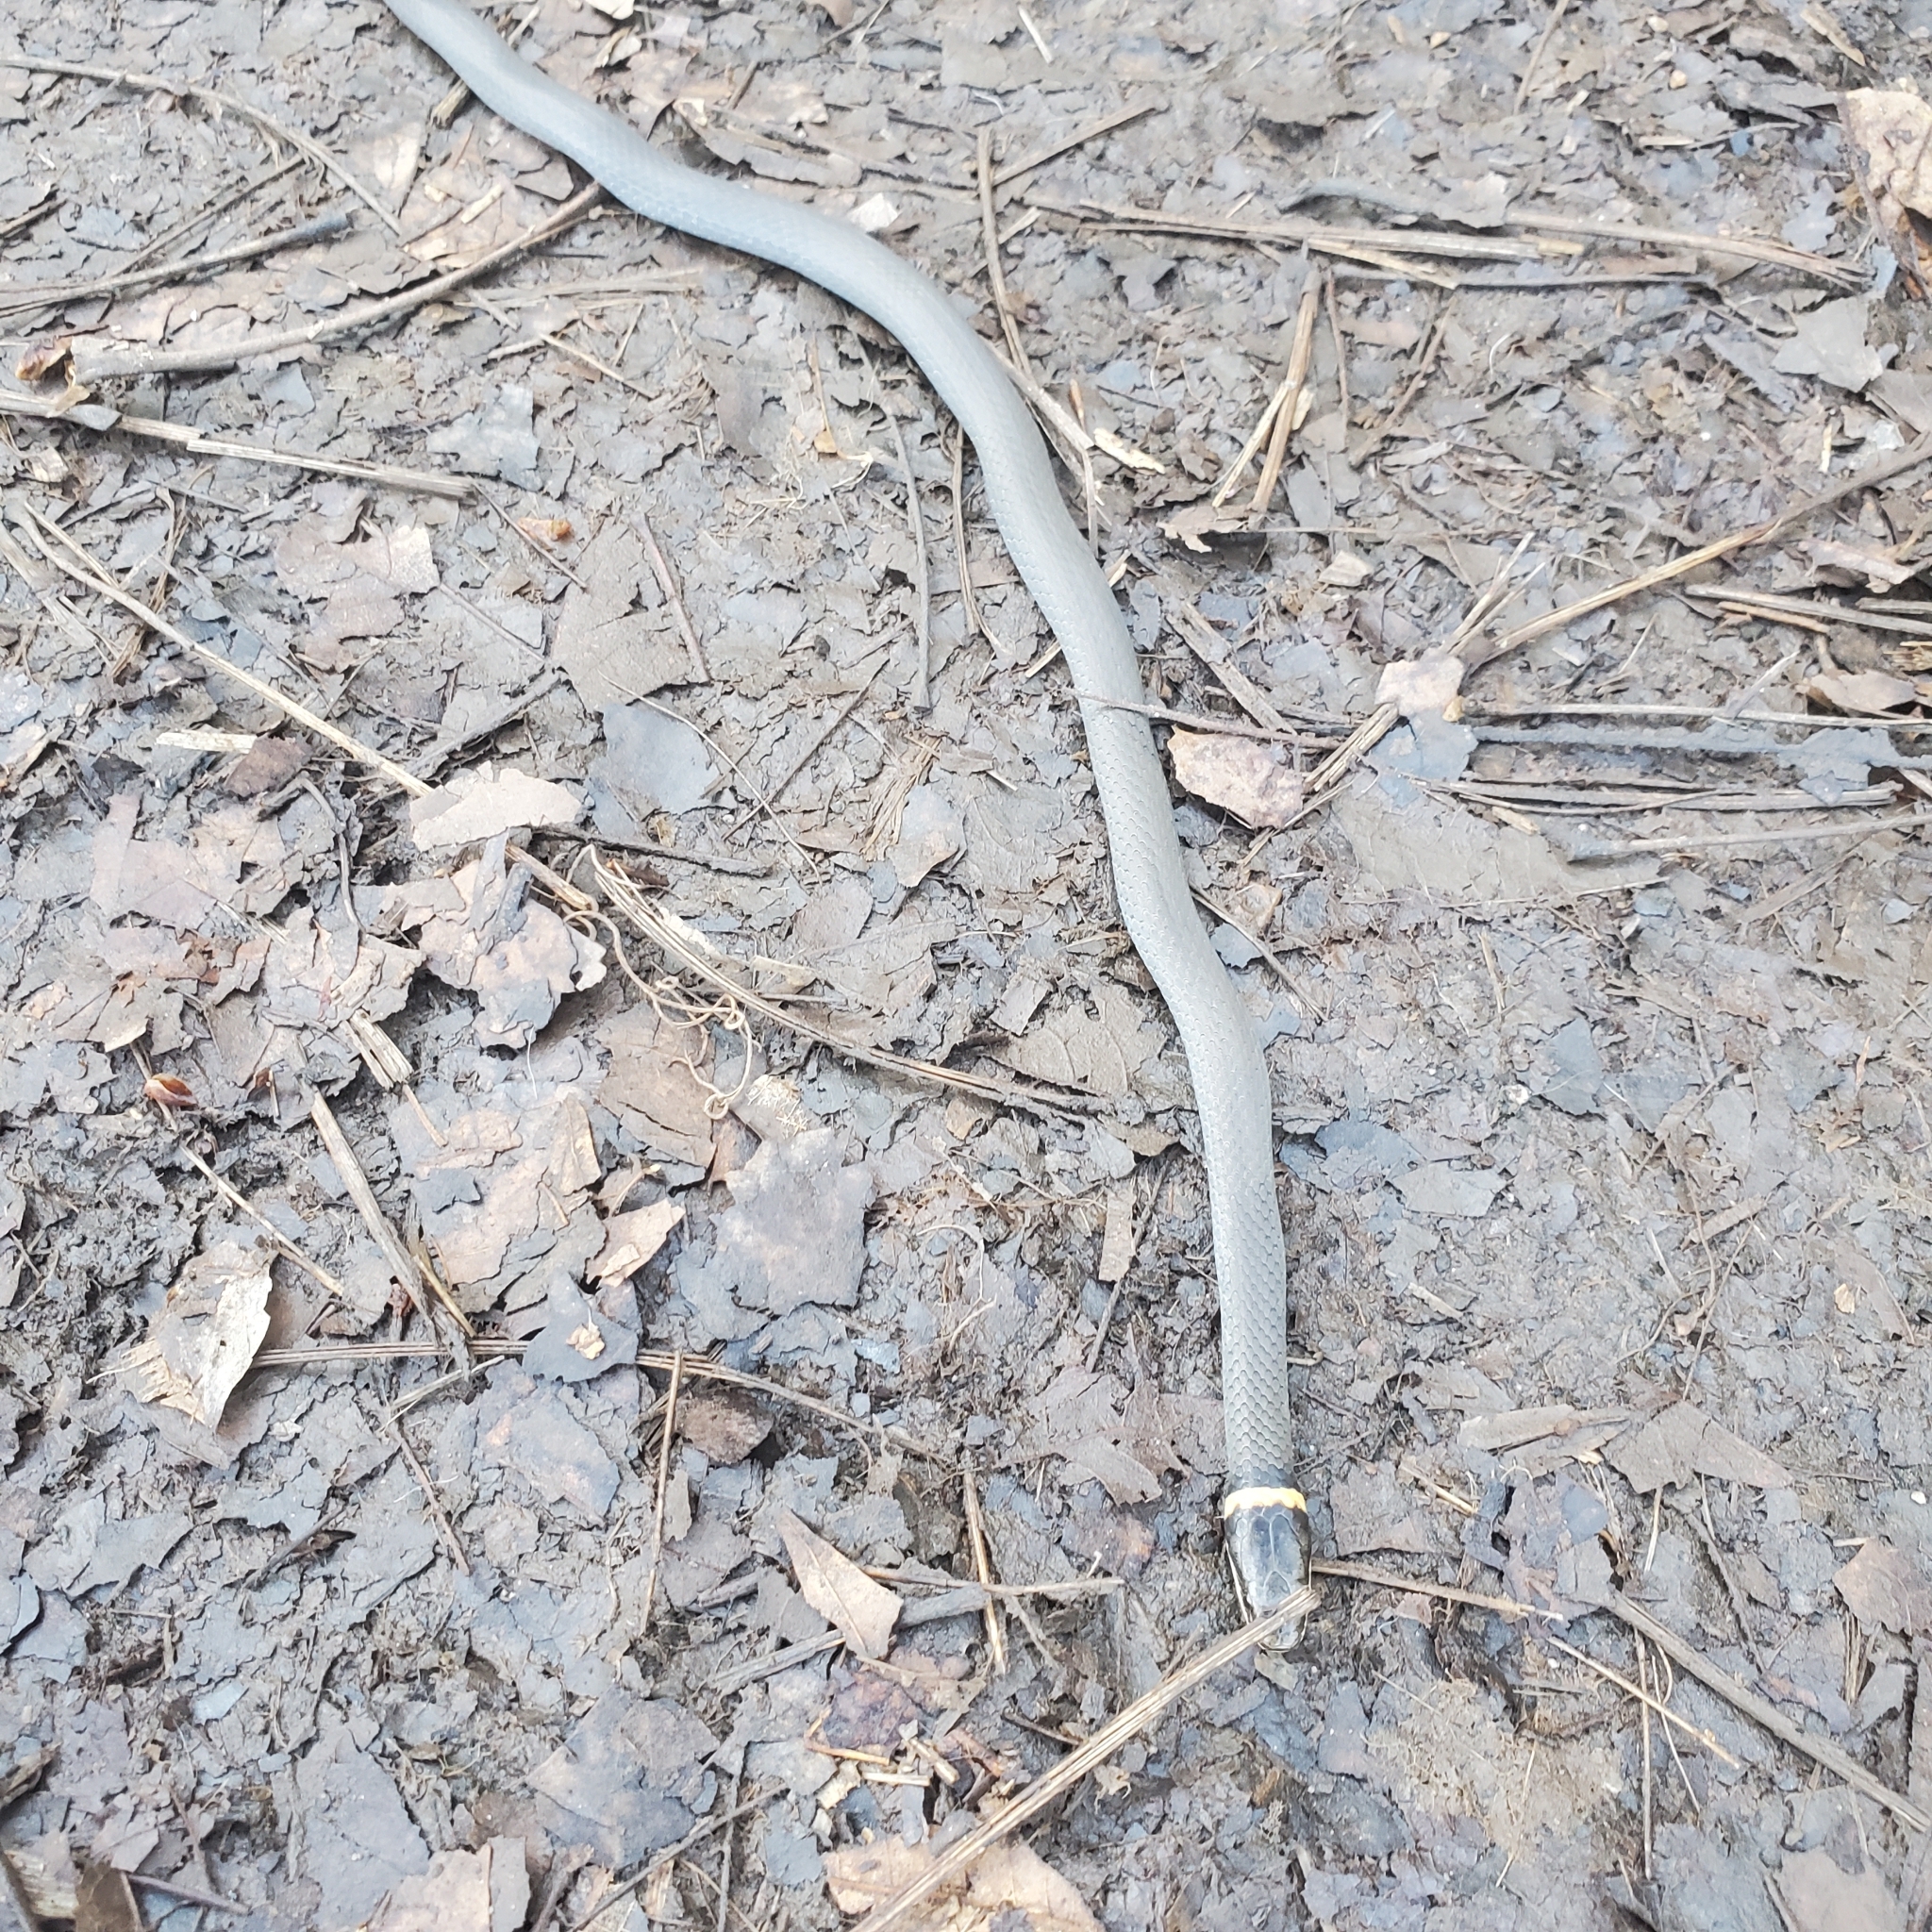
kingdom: Animalia
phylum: Chordata
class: Squamata
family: Colubridae
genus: Diadophis
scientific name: Diadophis punctatus
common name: Ringneck snake
